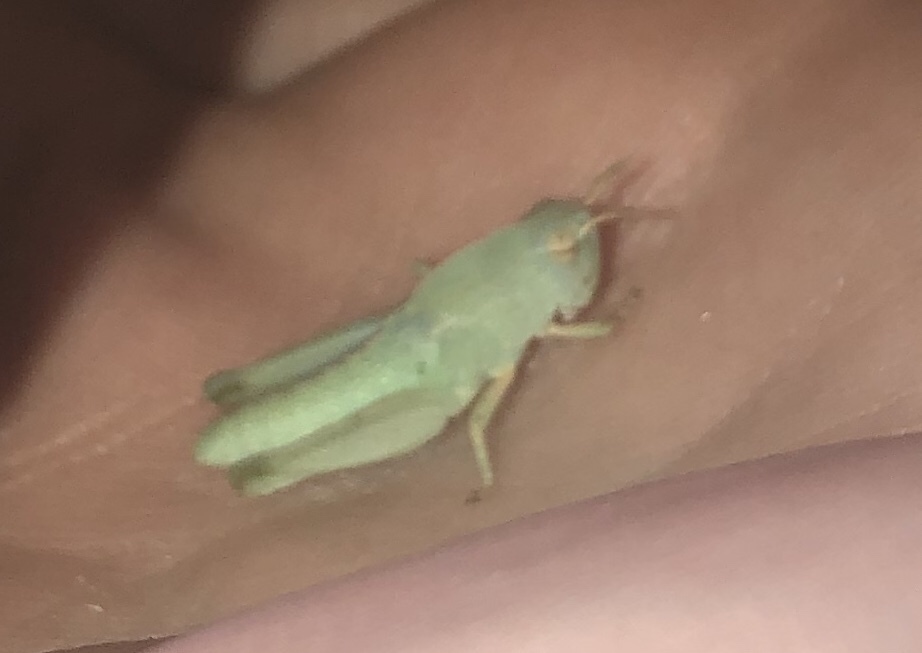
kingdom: Animalia
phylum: Arthropoda
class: Insecta
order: Orthoptera
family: Acrididae
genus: Chortophaga
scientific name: Chortophaga viridifasciata
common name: Green-striped grasshopper
